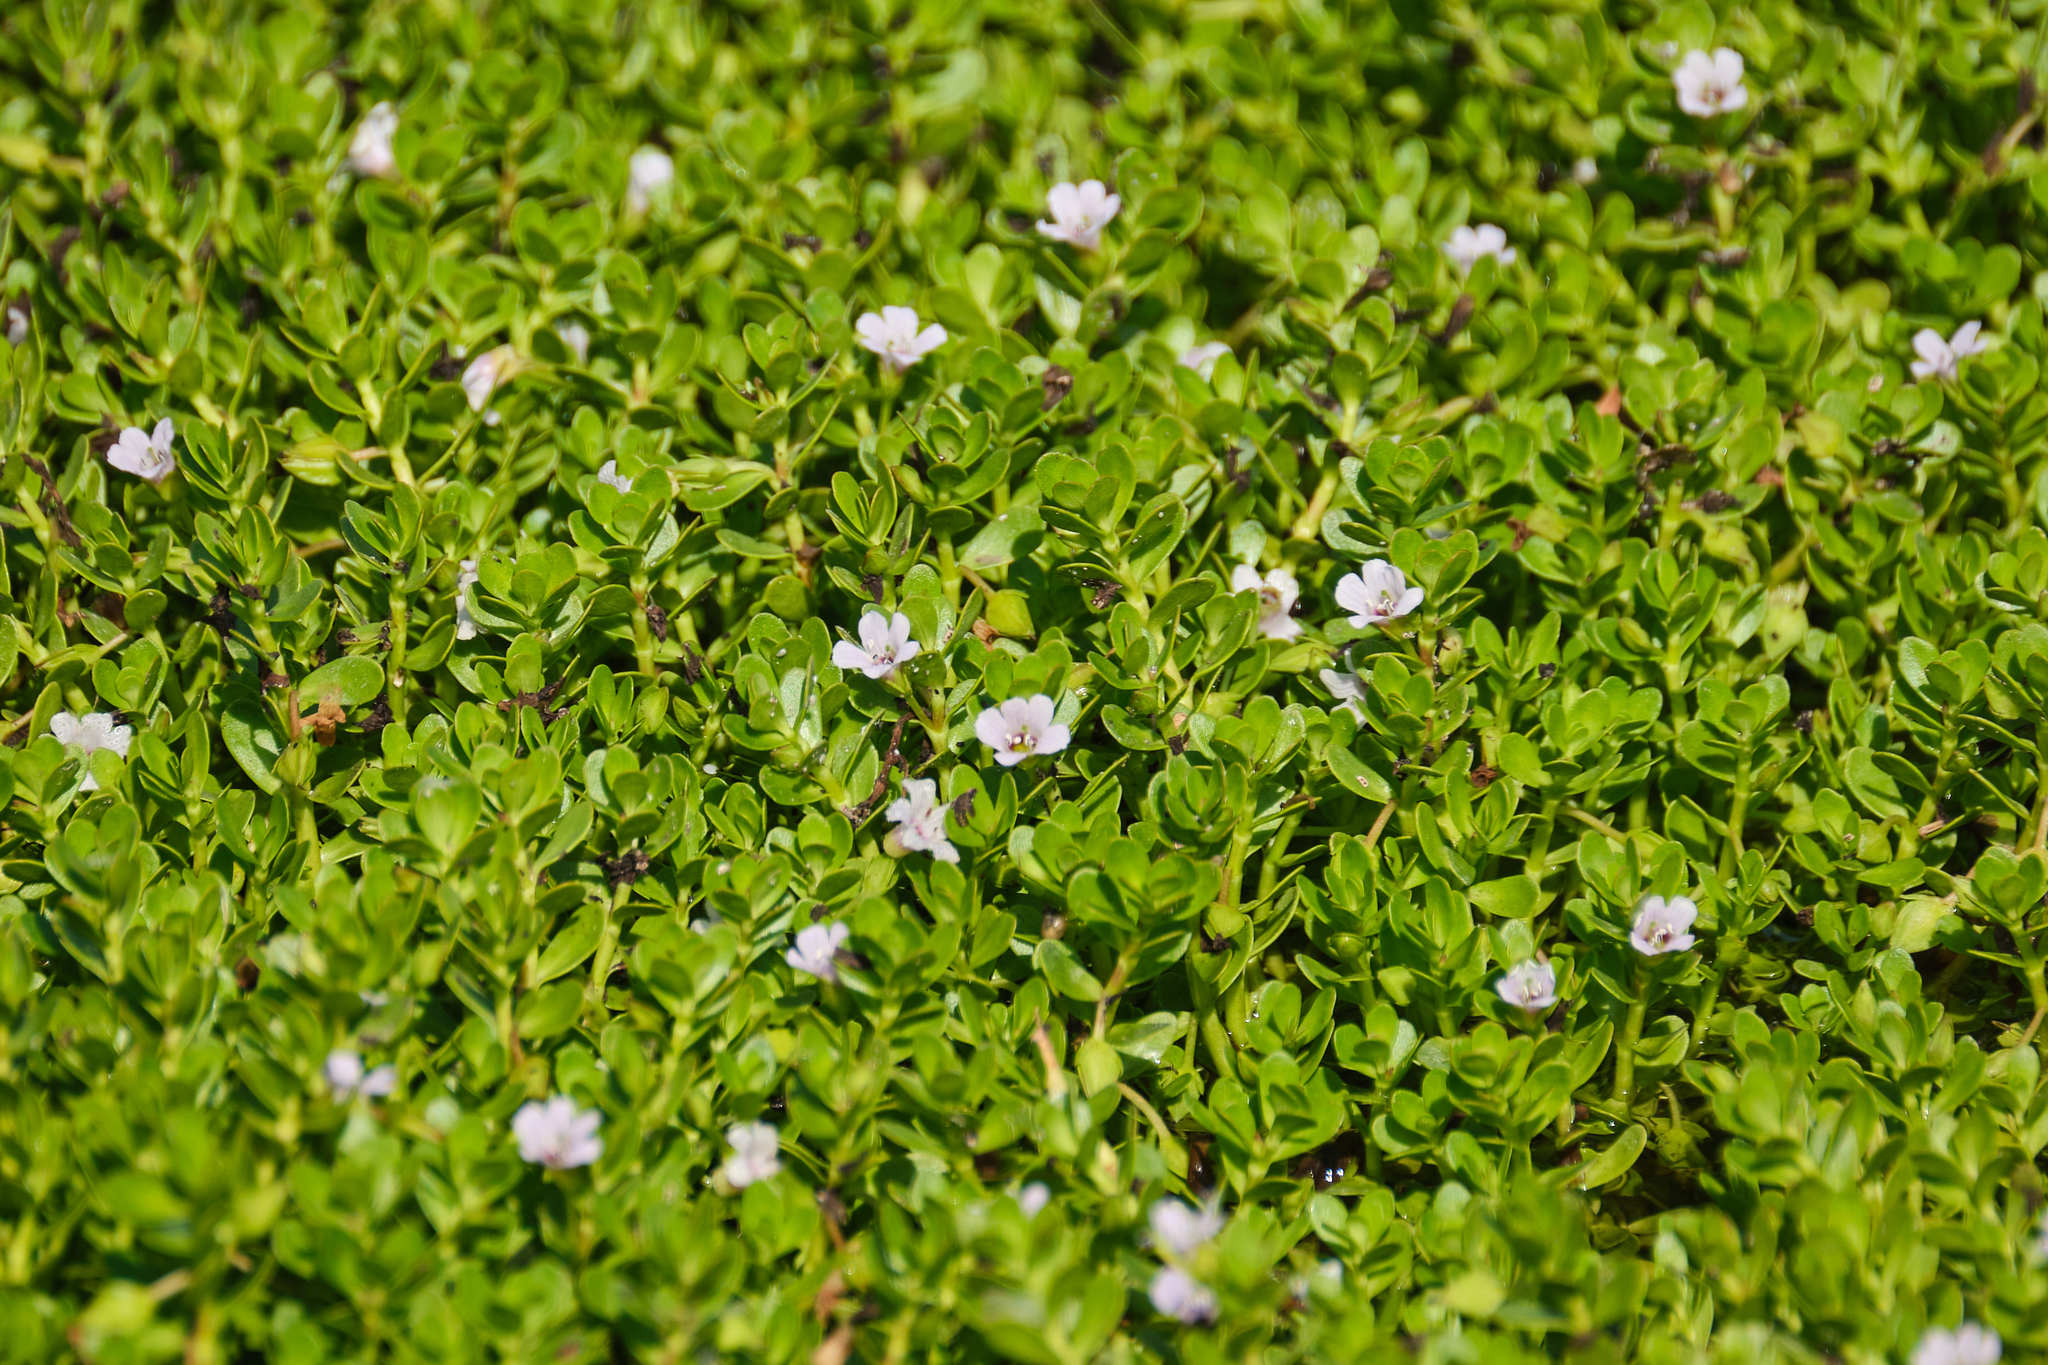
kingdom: Plantae
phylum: Tracheophyta
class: Magnoliopsida
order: Lamiales
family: Plantaginaceae
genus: Bacopa
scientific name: Bacopa monnieri
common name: Indian-pennywort
